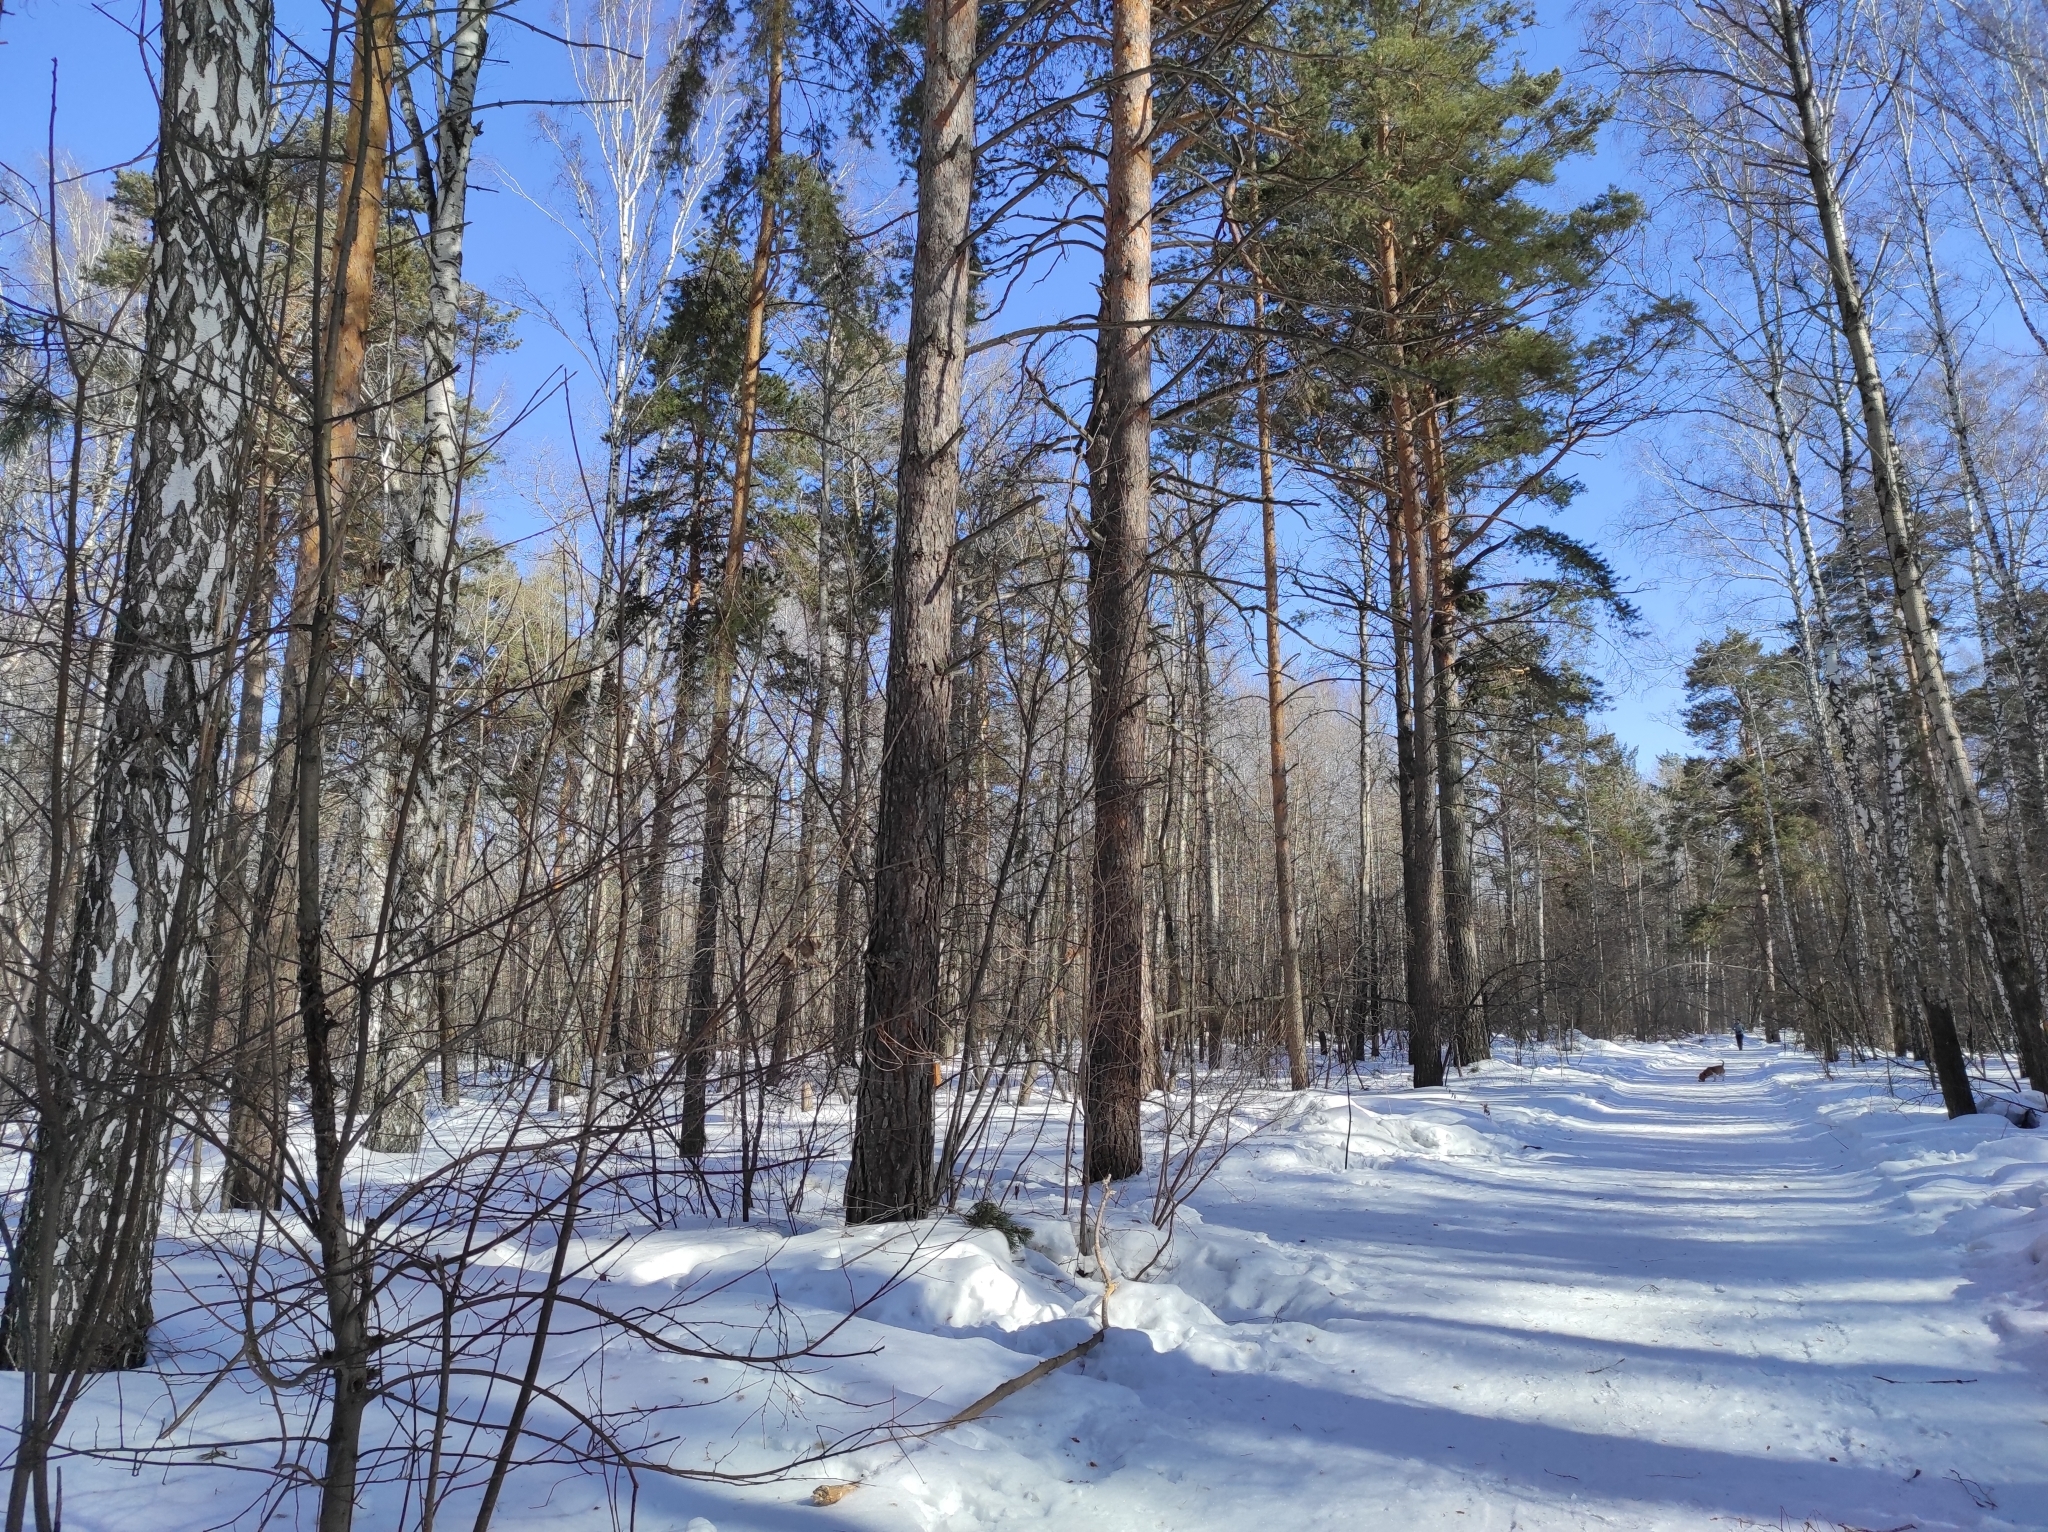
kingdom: Animalia
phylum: Chordata
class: Aves
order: Passeriformes
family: Paridae
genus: Parus
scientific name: Parus major
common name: Great tit
